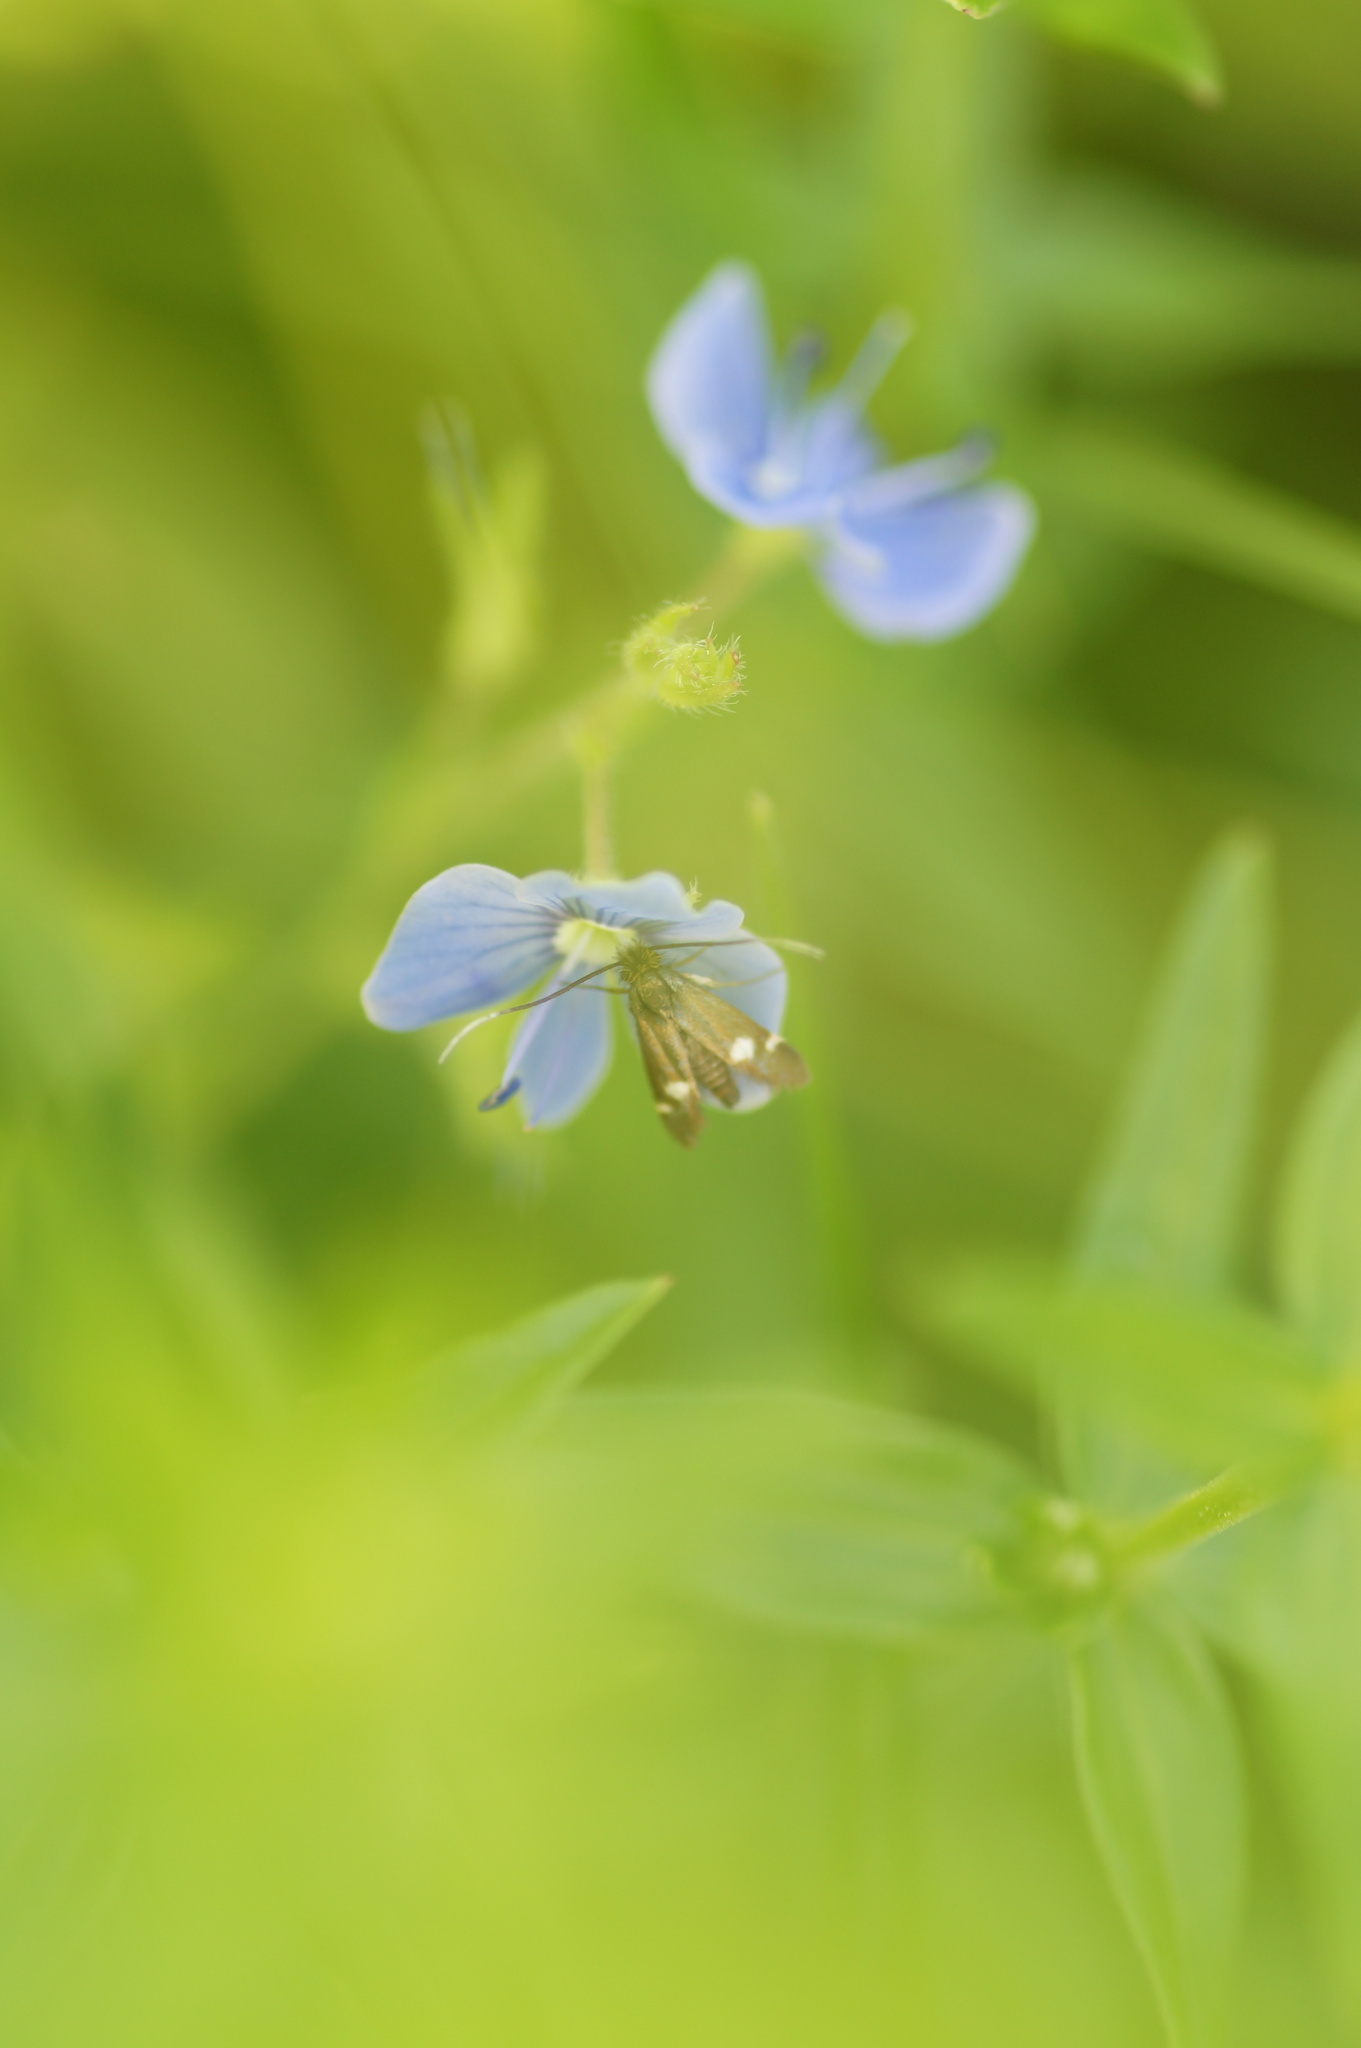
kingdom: Animalia
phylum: Arthropoda
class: Insecta
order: Lepidoptera
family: Adelidae
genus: Cauchas
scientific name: Cauchas leucocerella
